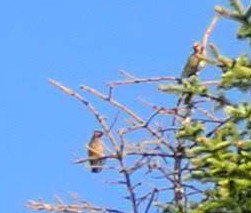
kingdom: Animalia
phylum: Chordata
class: Aves
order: Passeriformes
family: Bombycillidae
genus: Bombycilla
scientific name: Bombycilla cedrorum
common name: Cedar waxwing
